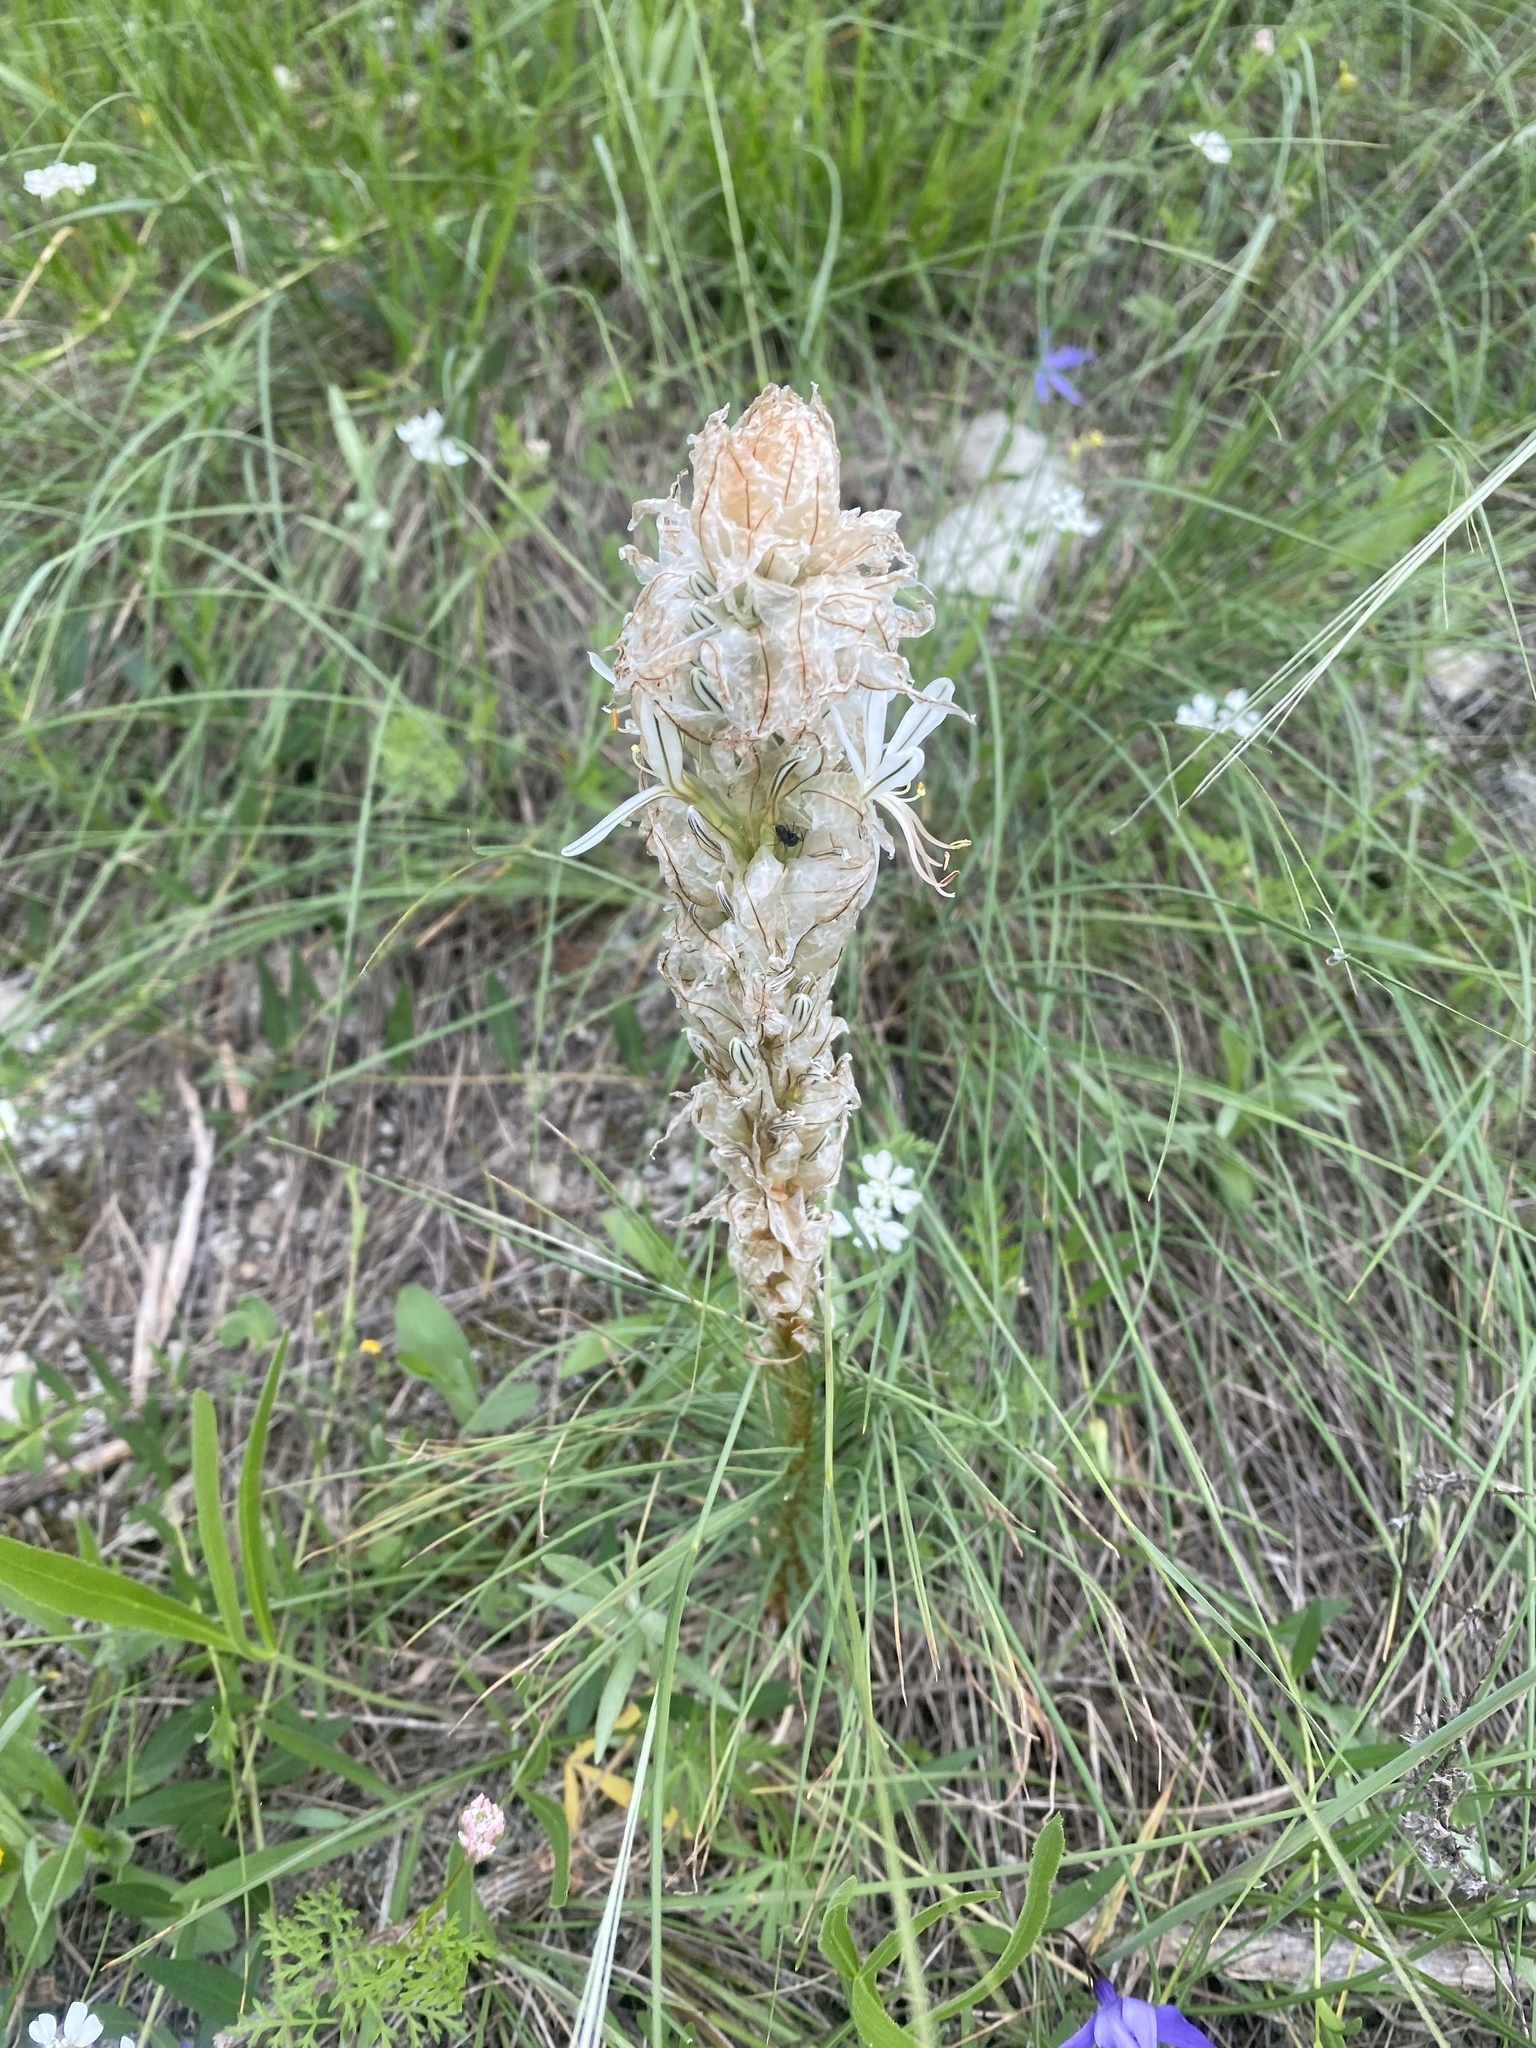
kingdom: Plantae
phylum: Tracheophyta
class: Liliopsida
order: Asparagales
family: Asphodelaceae
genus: Asphodeline
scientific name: Asphodeline taurica
